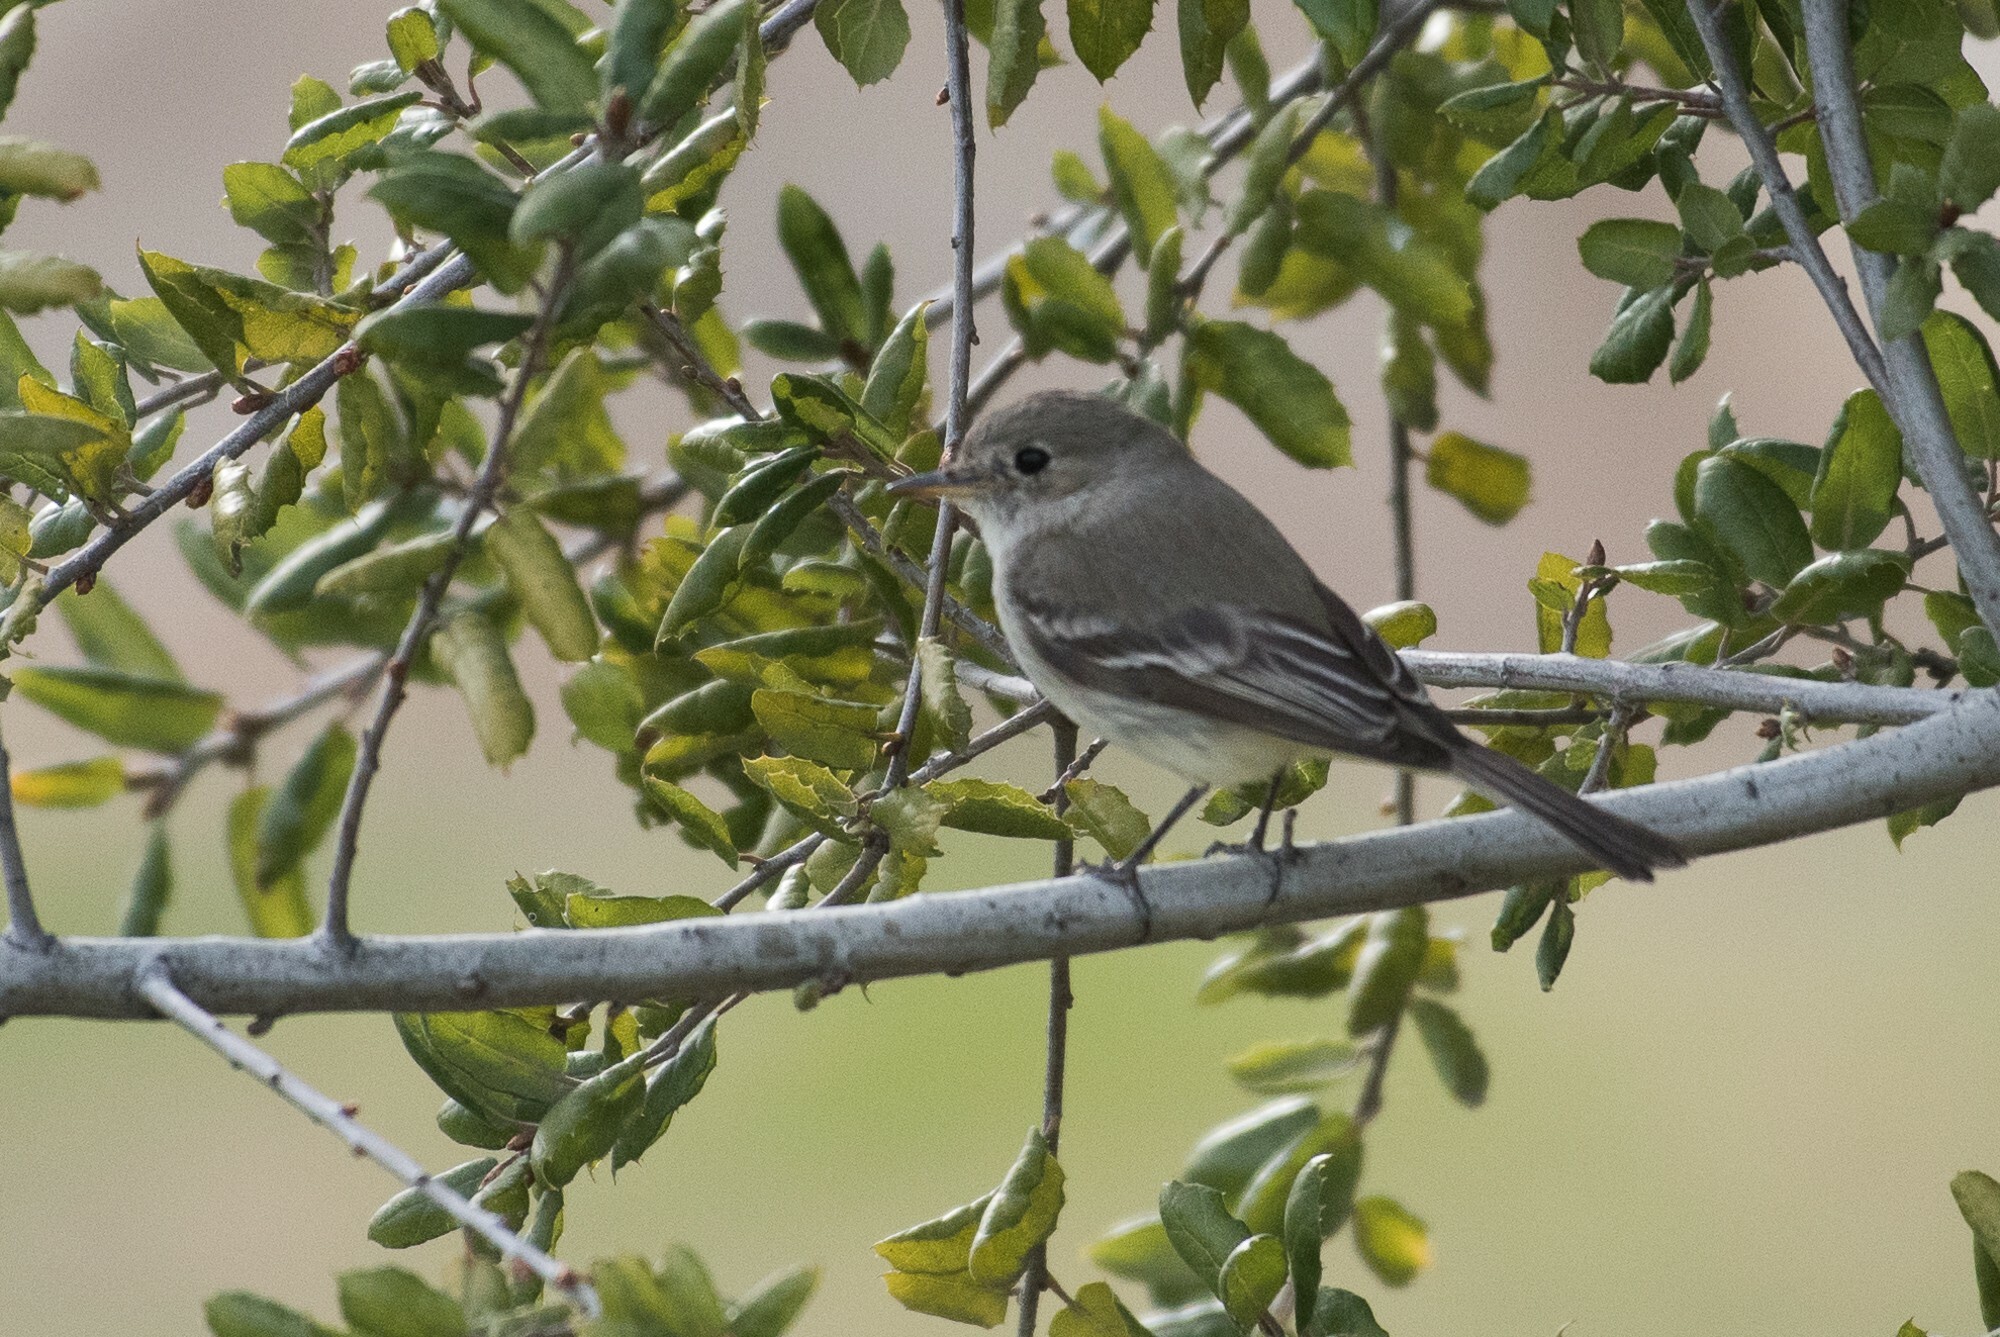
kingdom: Animalia
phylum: Chordata
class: Aves
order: Passeriformes
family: Tyrannidae
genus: Empidonax
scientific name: Empidonax wrightii
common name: Gray flycatcher
